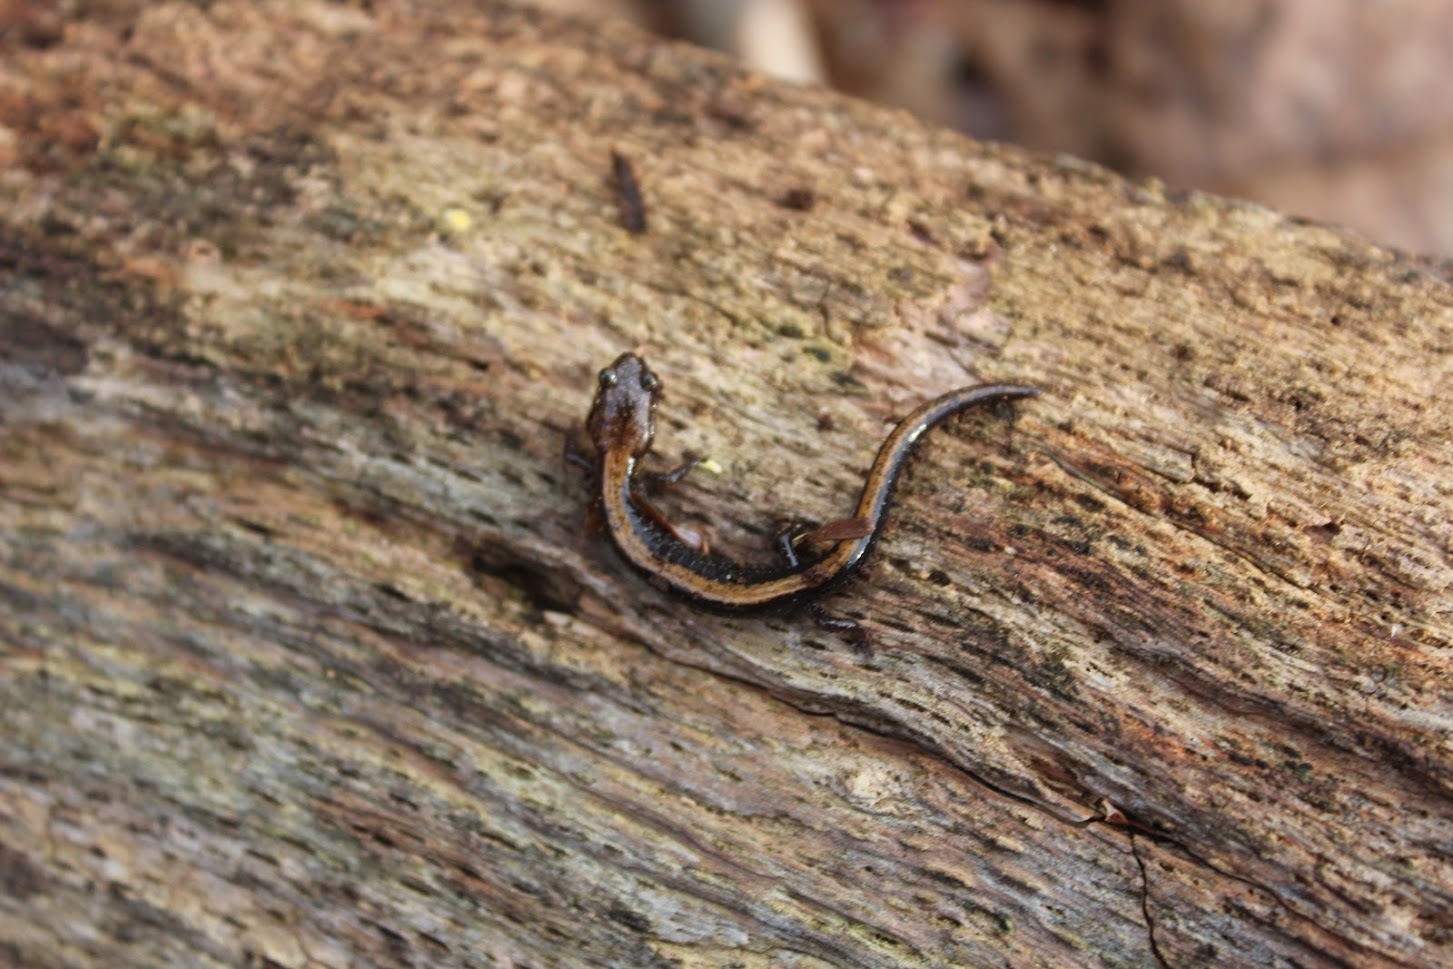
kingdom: Animalia
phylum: Chordata
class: Amphibia
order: Caudata
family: Plethodontidae
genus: Plethodon
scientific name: Plethodon shenandoah
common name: Shenandoah salamander
